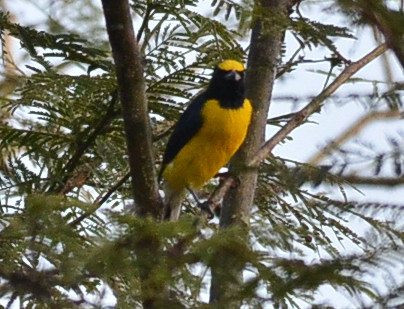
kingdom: Animalia
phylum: Chordata
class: Aves
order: Passeriformes
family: Fringillidae
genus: Euphonia
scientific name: Euphonia godmani
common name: West mexican euphonia
